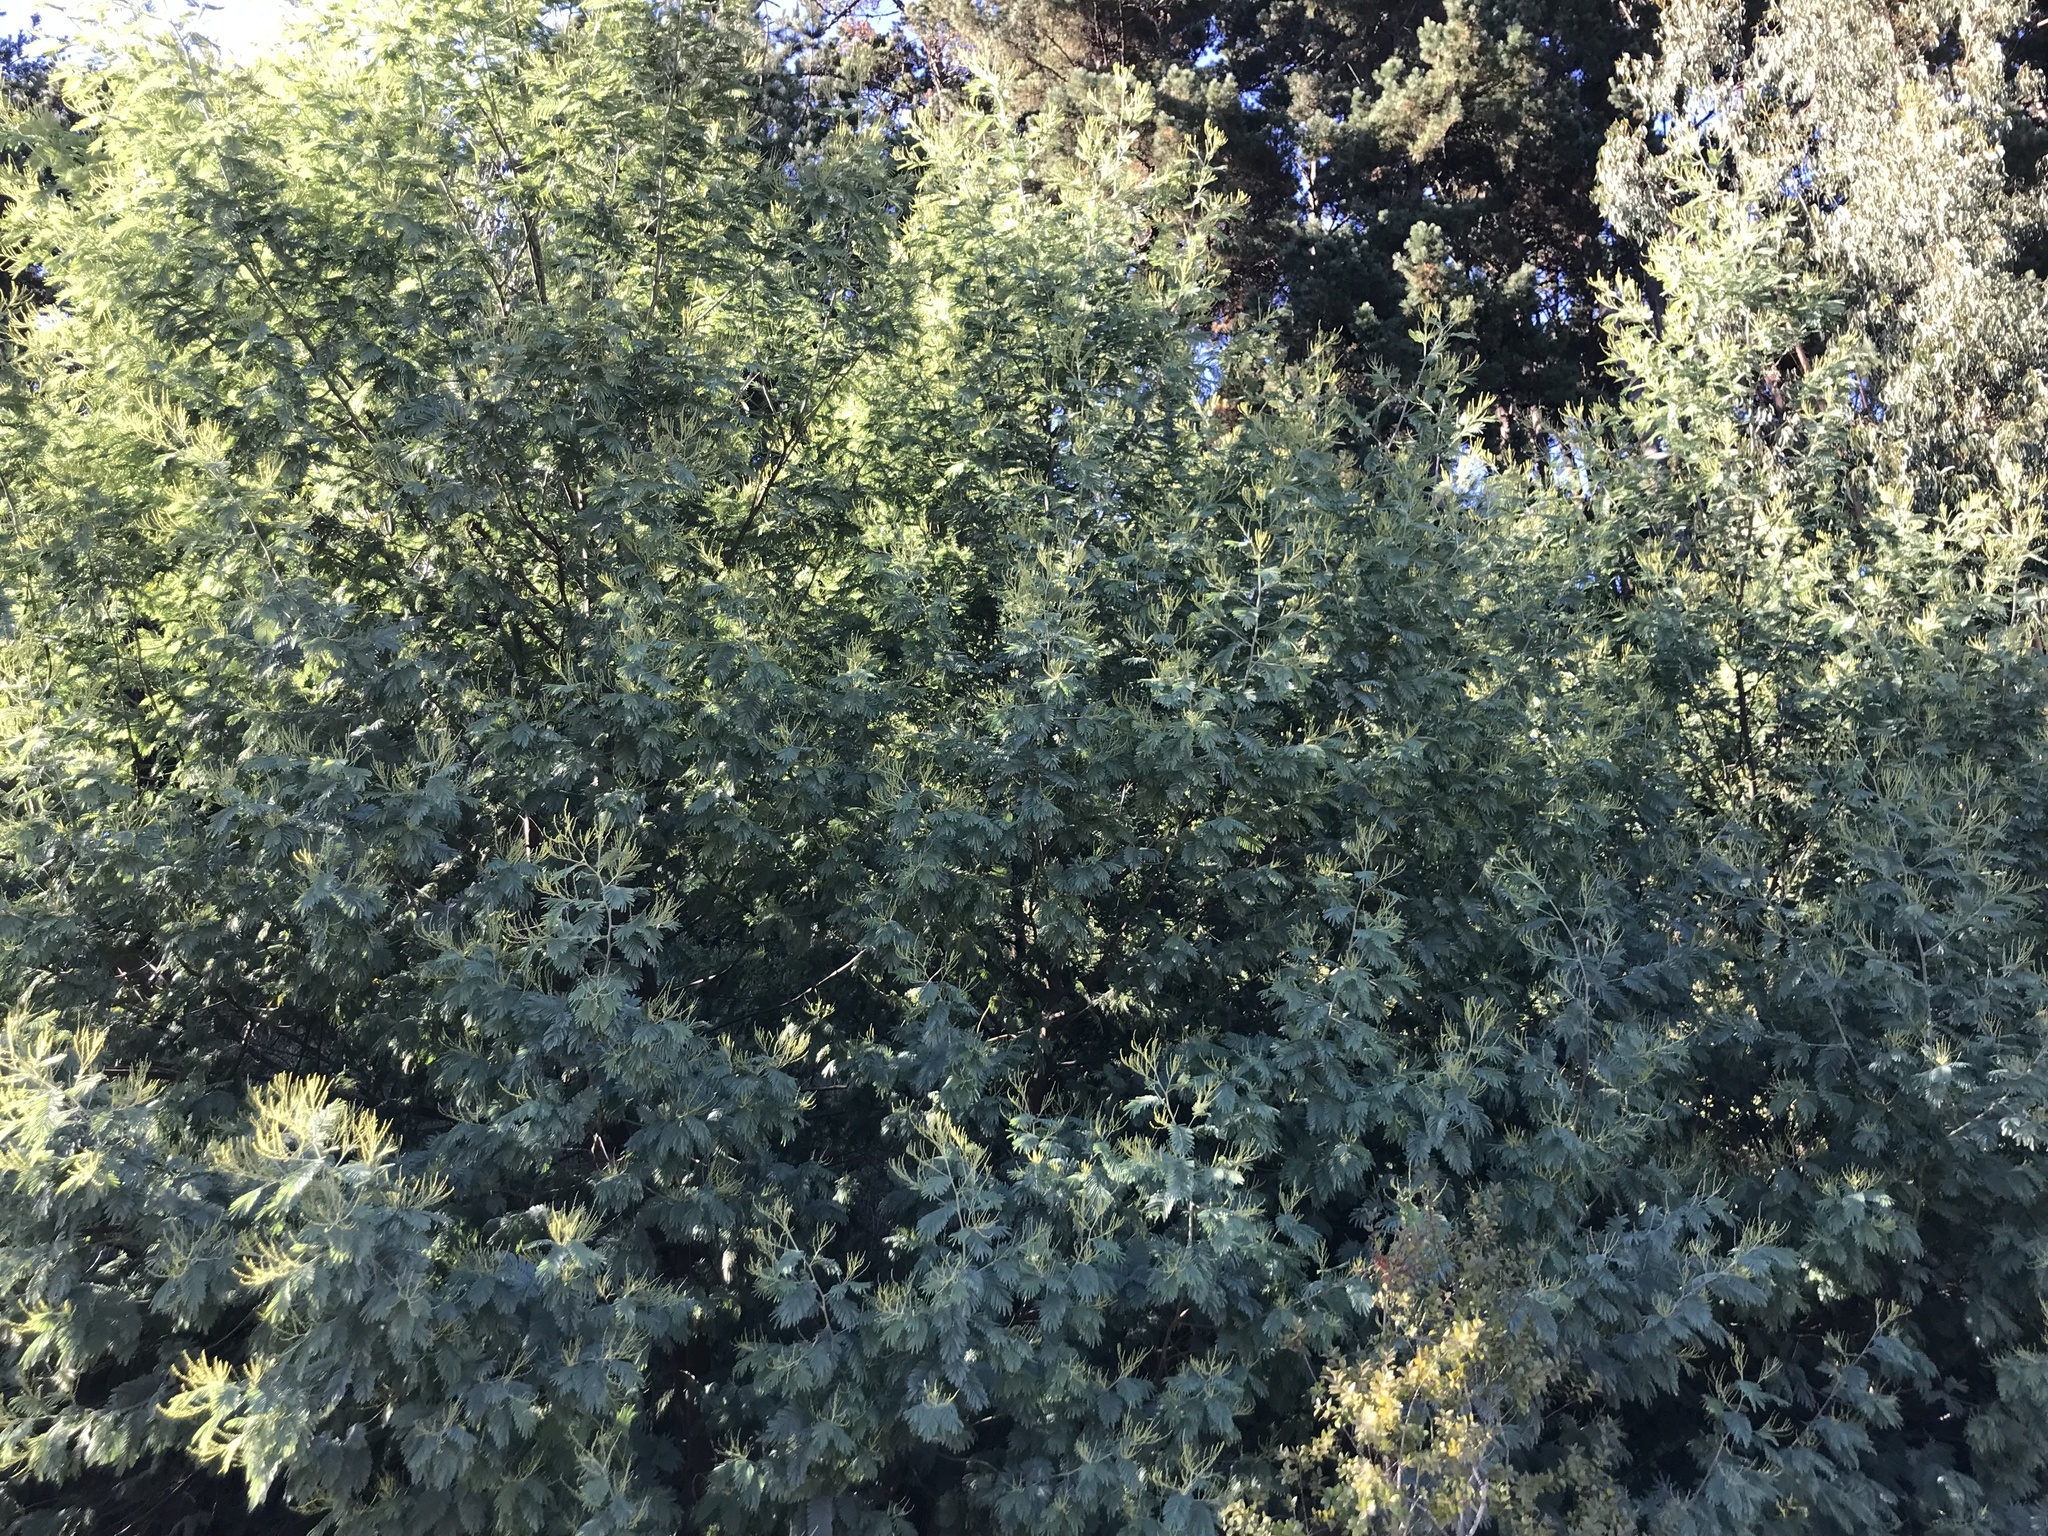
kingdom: Plantae
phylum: Tracheophyta
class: Magnoliopsida
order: Fabales
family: Fabaceae
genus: Acacia
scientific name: Acacia dealbata
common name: Silver wattle
